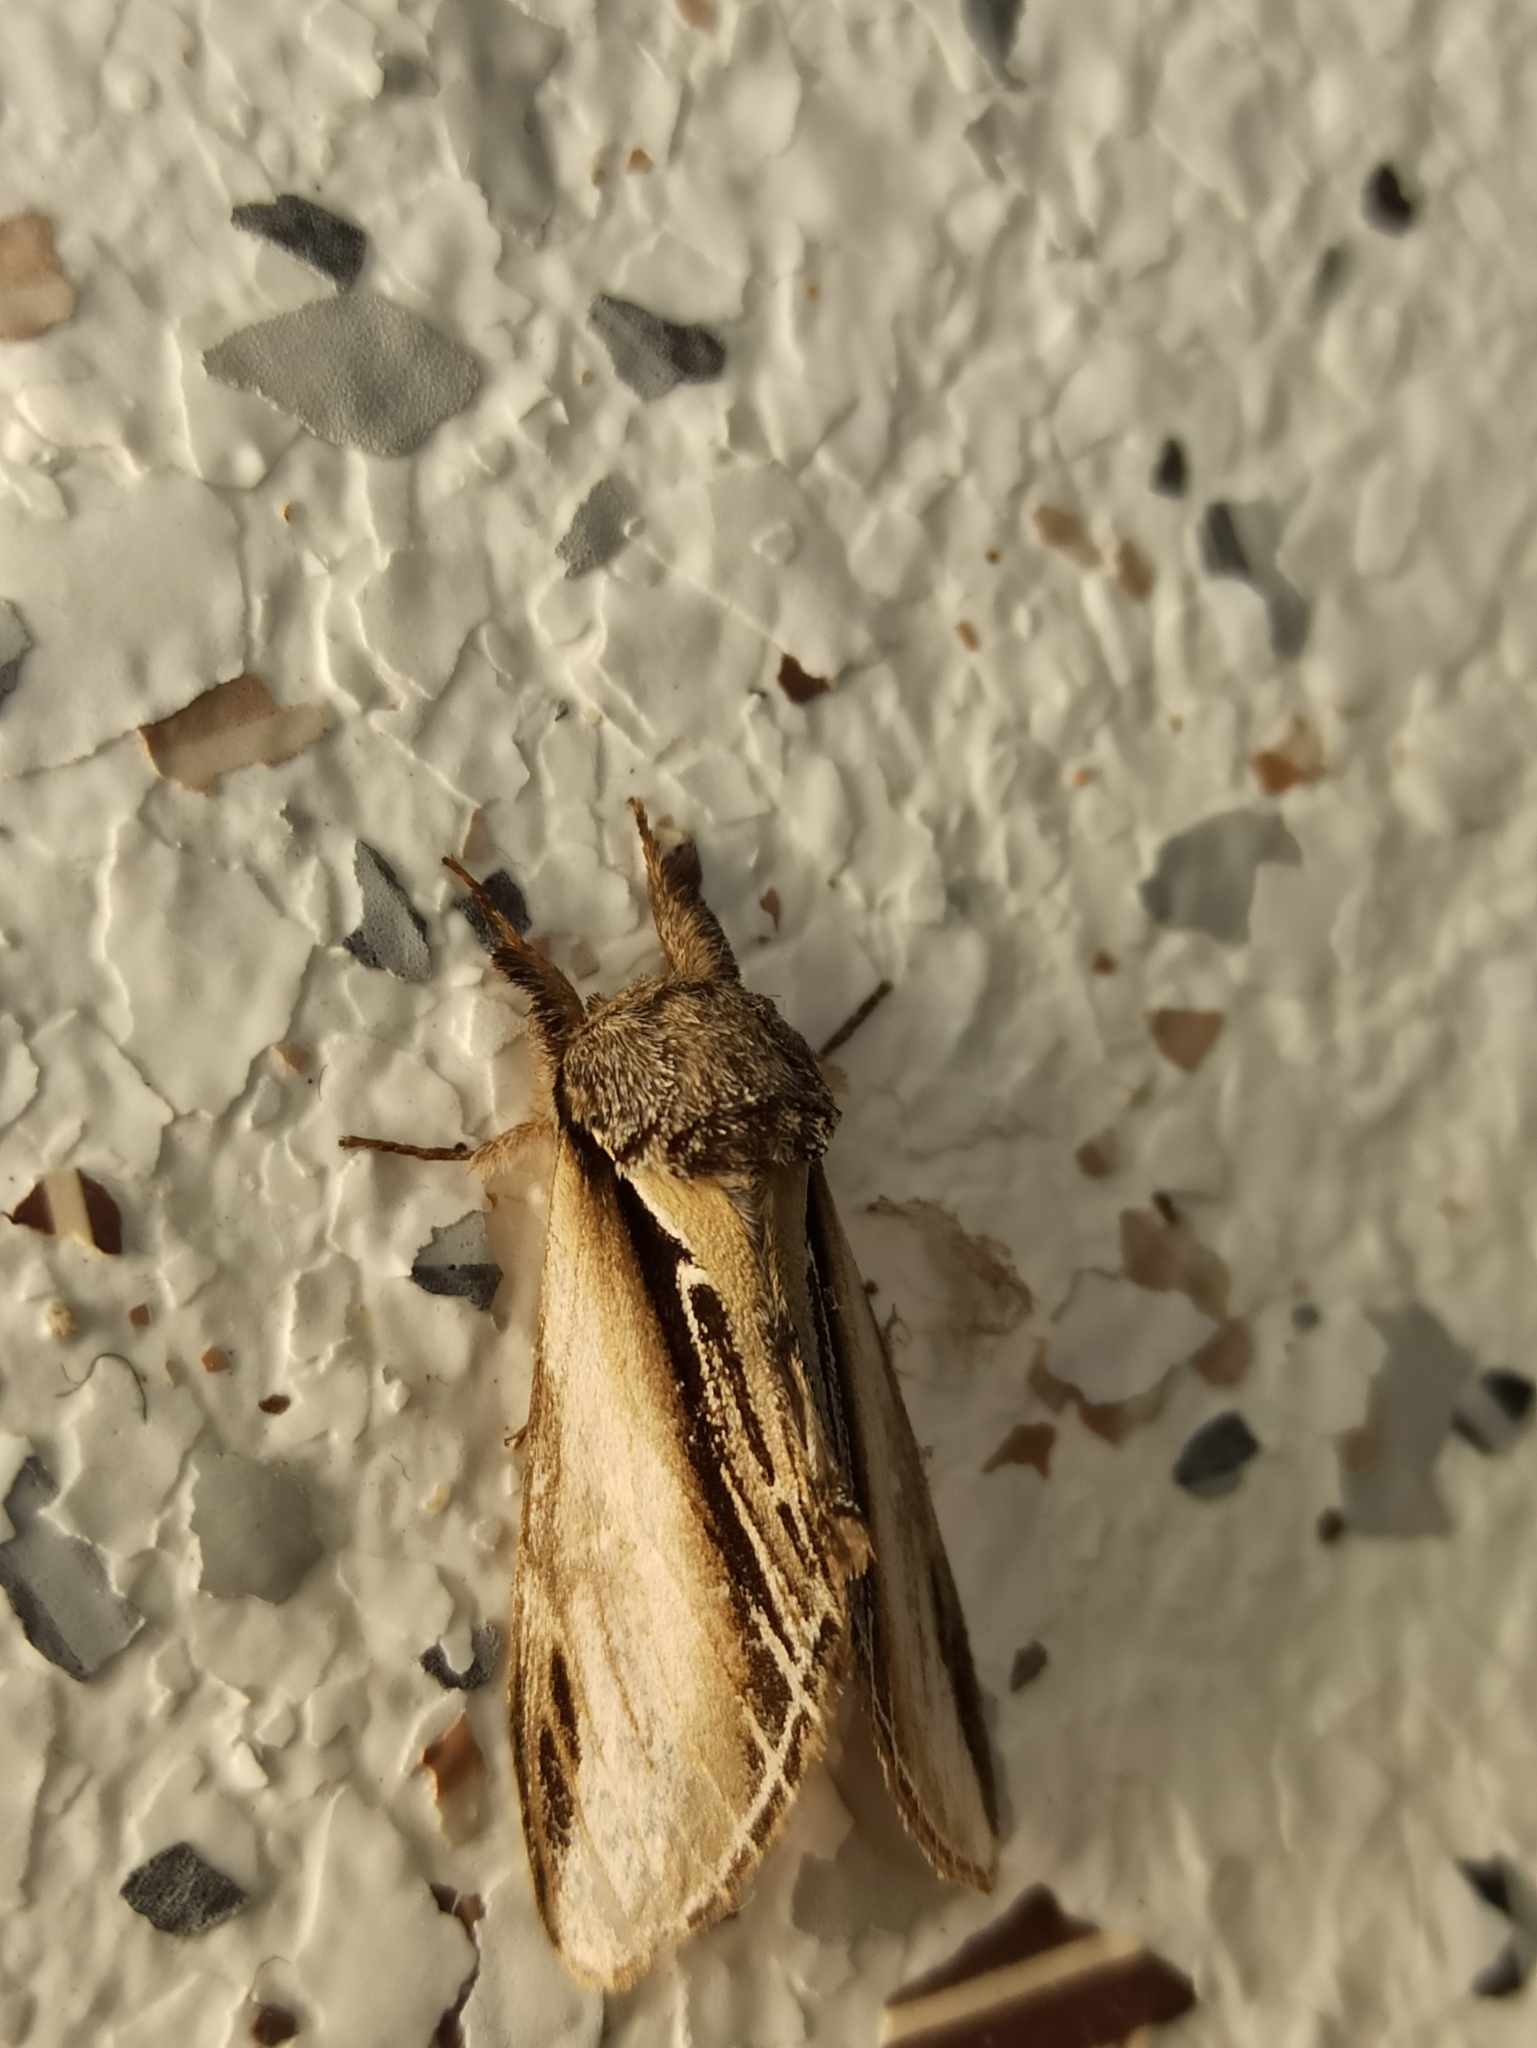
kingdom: Animalia
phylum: Arthropoda
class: Insecta
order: Lepidoptera
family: Notodontidae
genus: Pheosia
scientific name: Pheosia tremula
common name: Swallow prominent
